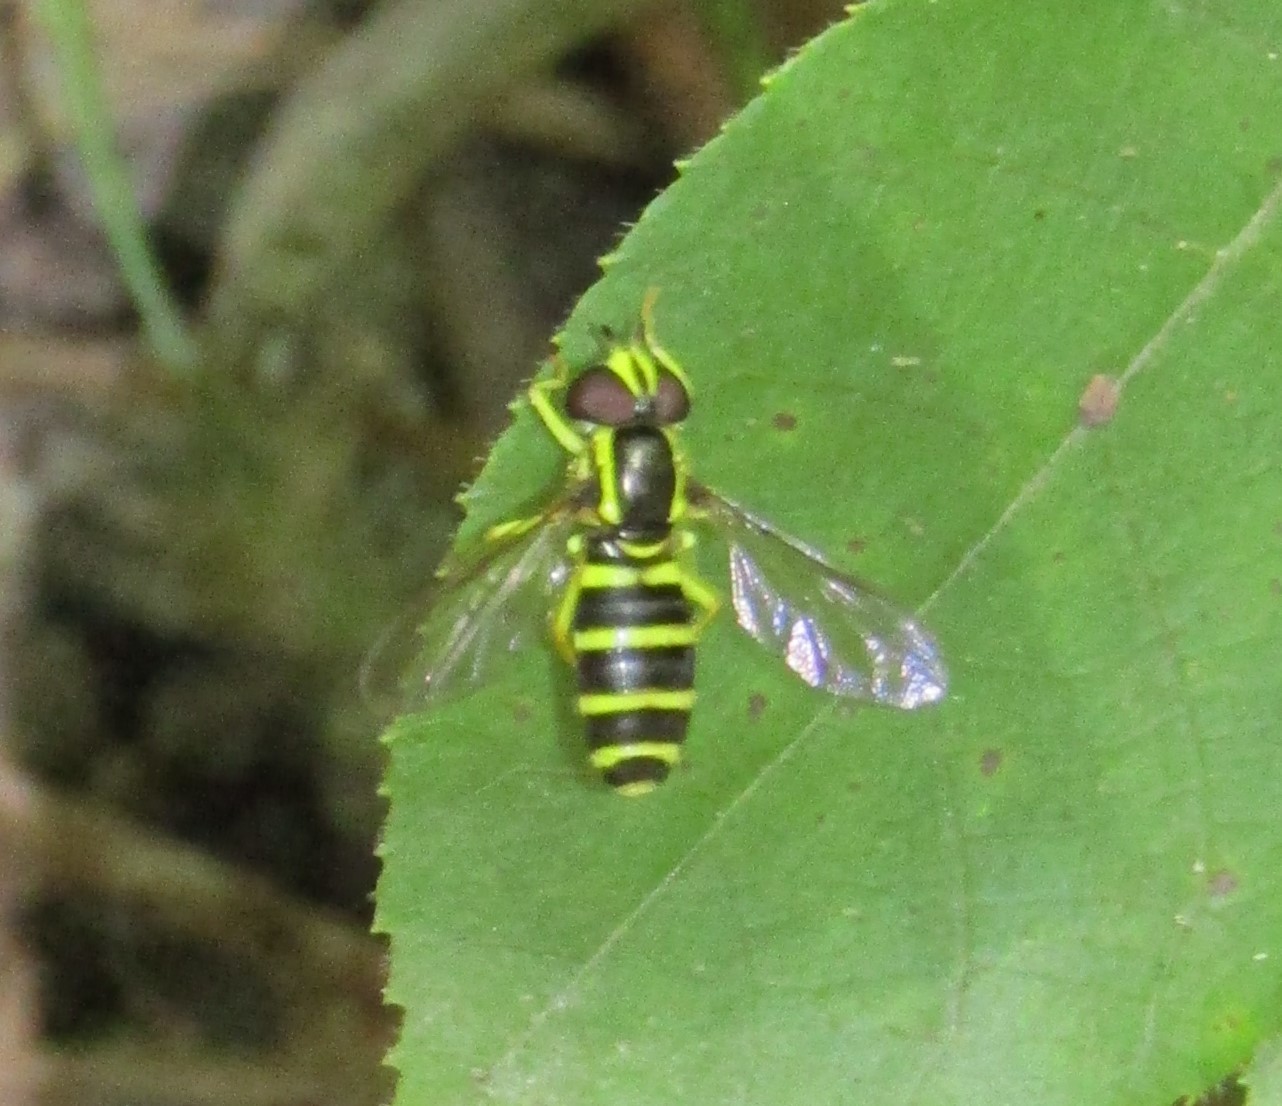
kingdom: Animalia
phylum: Arthropoda
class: Insecta
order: Diptera
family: Syrphidae
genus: Philhelius
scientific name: Philhelius flavipes
